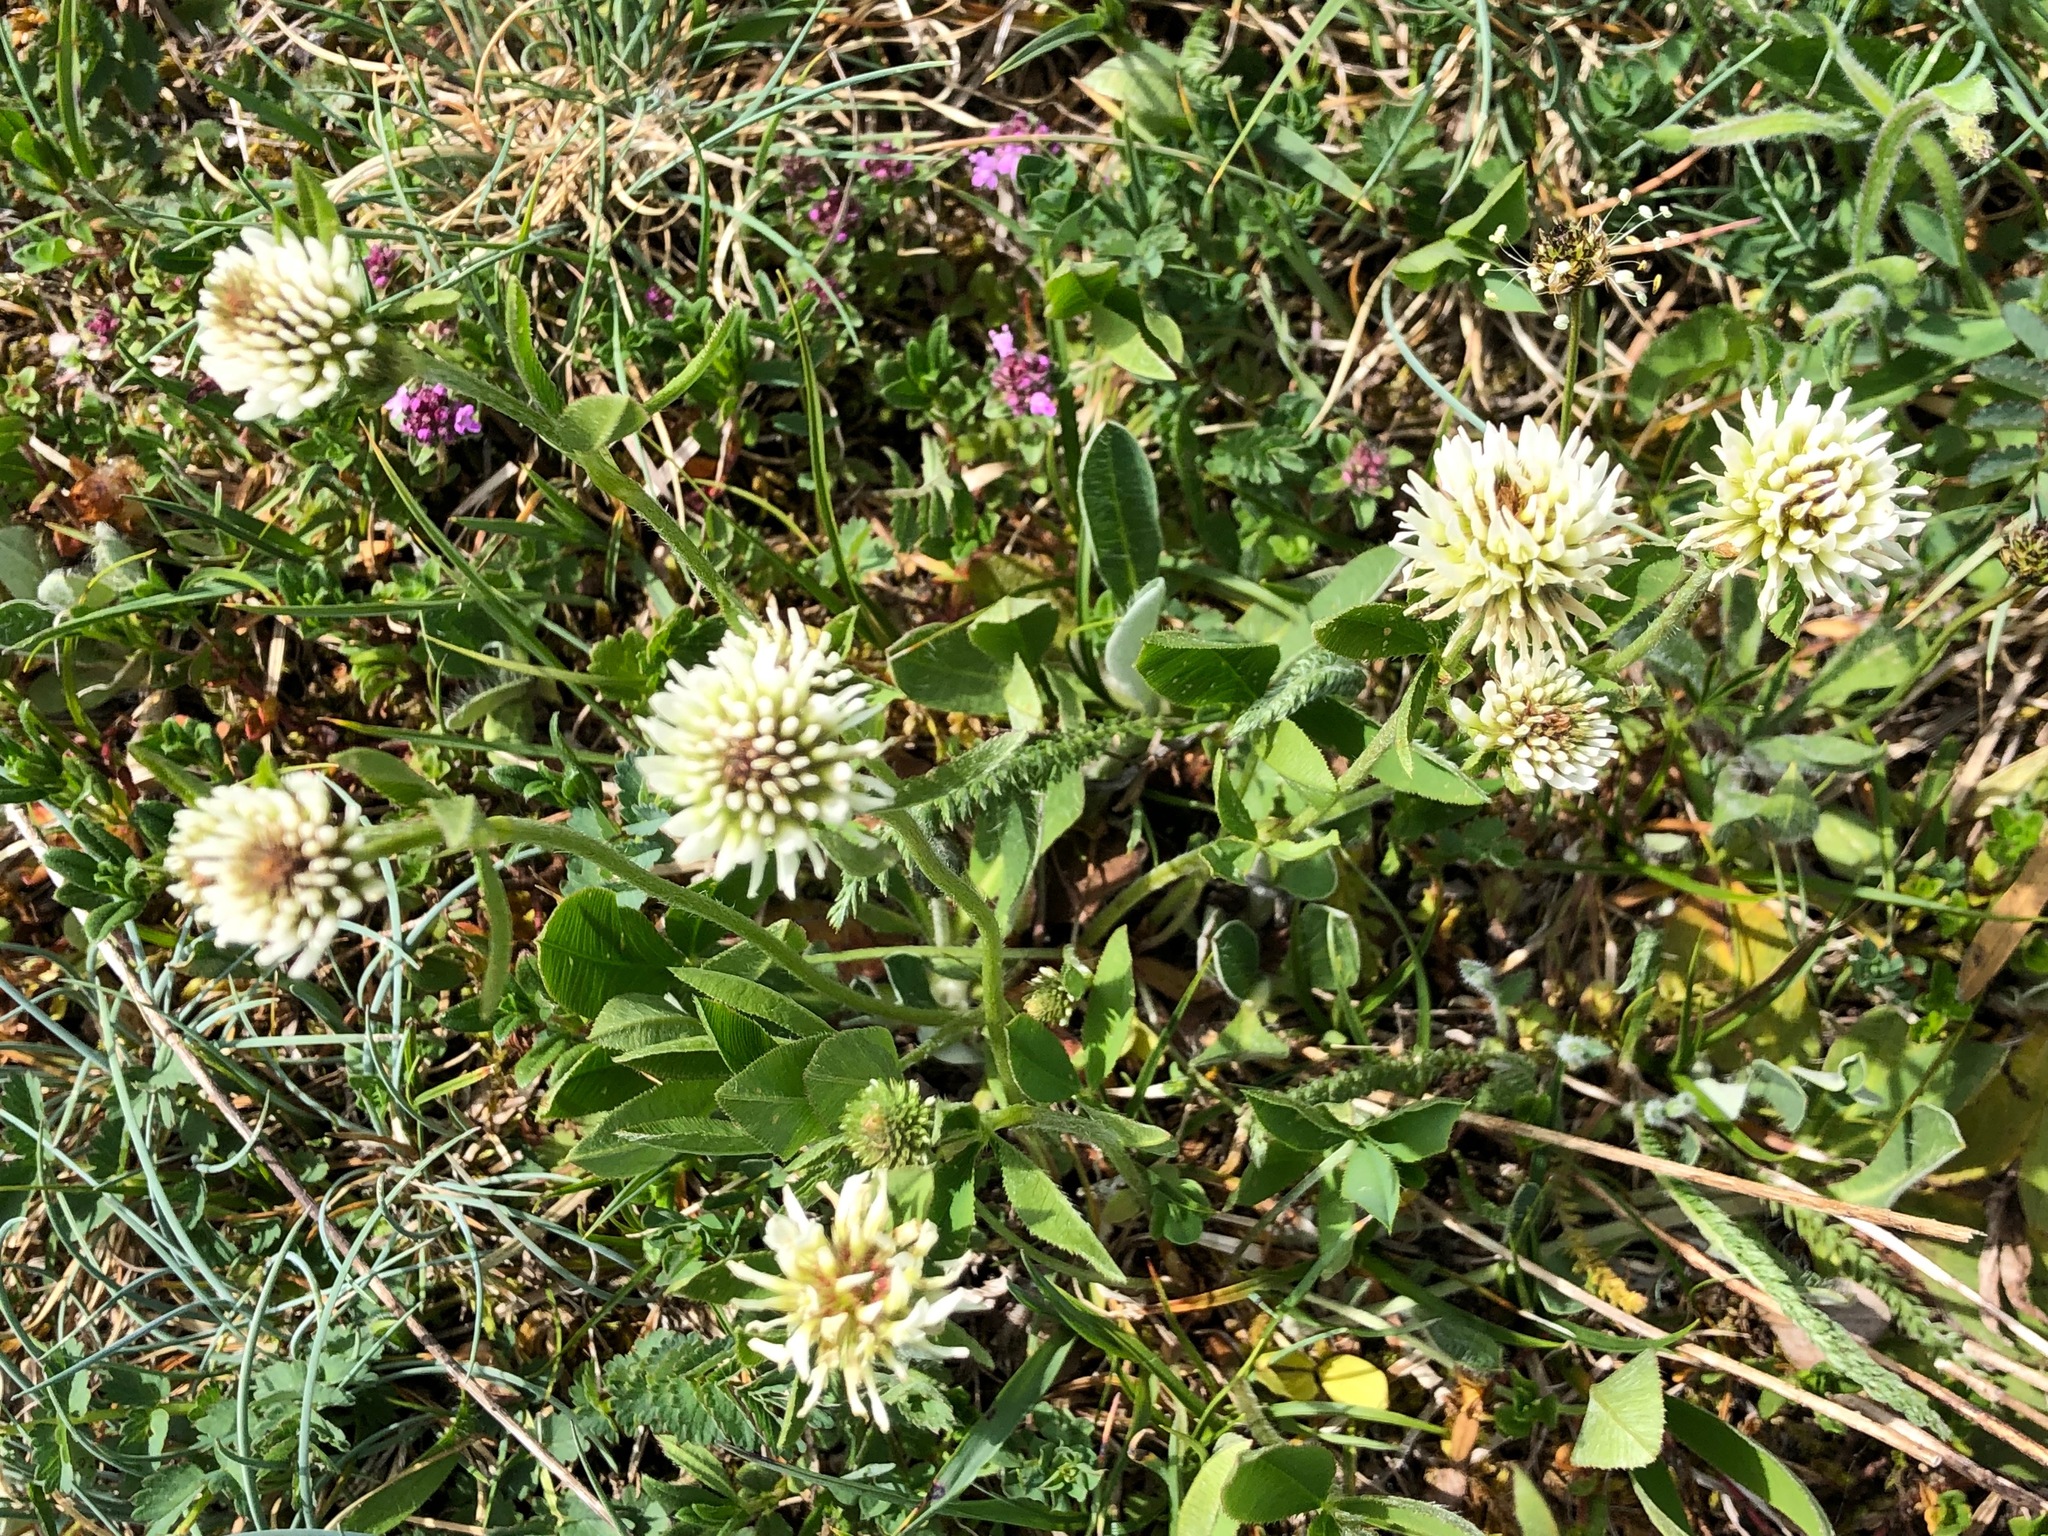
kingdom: Plantae
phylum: Tracheophyta
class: Magnoliopsida
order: Fabales
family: Fabaceae
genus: Trifolium
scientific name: Trifolium montanum
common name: Mountain clover
